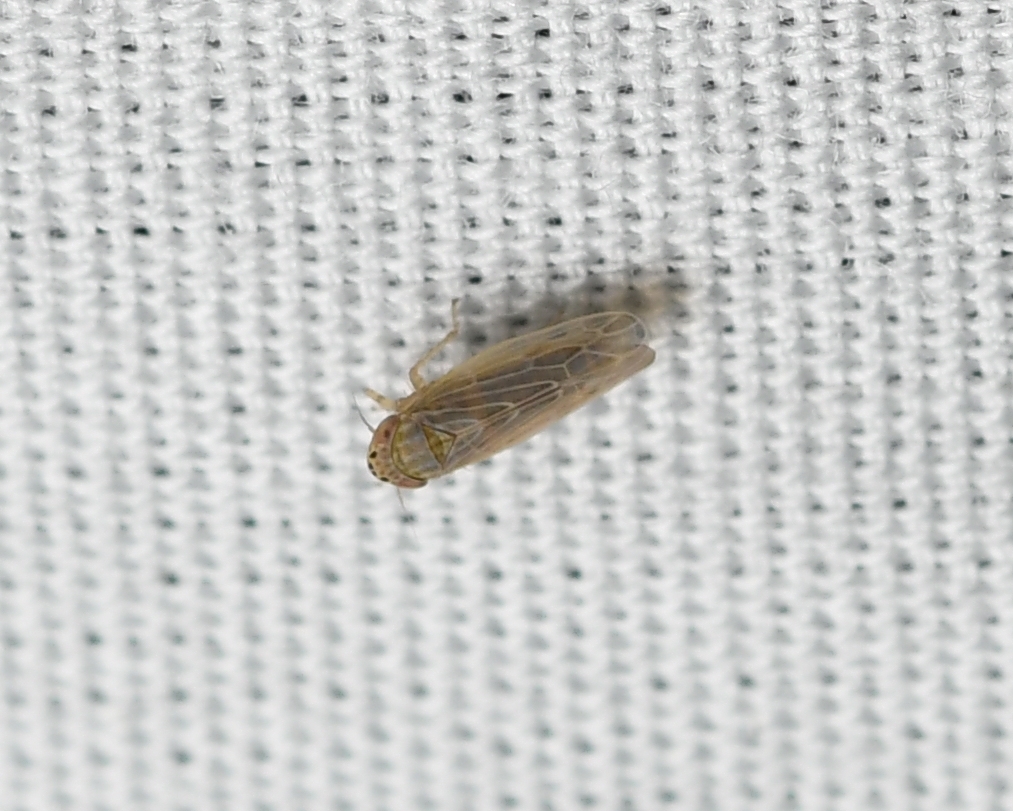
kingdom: Animalia
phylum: Arthropoda
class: Insecta
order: Hemiptera
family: Cicadellidae
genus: Graminella
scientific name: Graminella sonora
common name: Lesser lawn leafhopper
